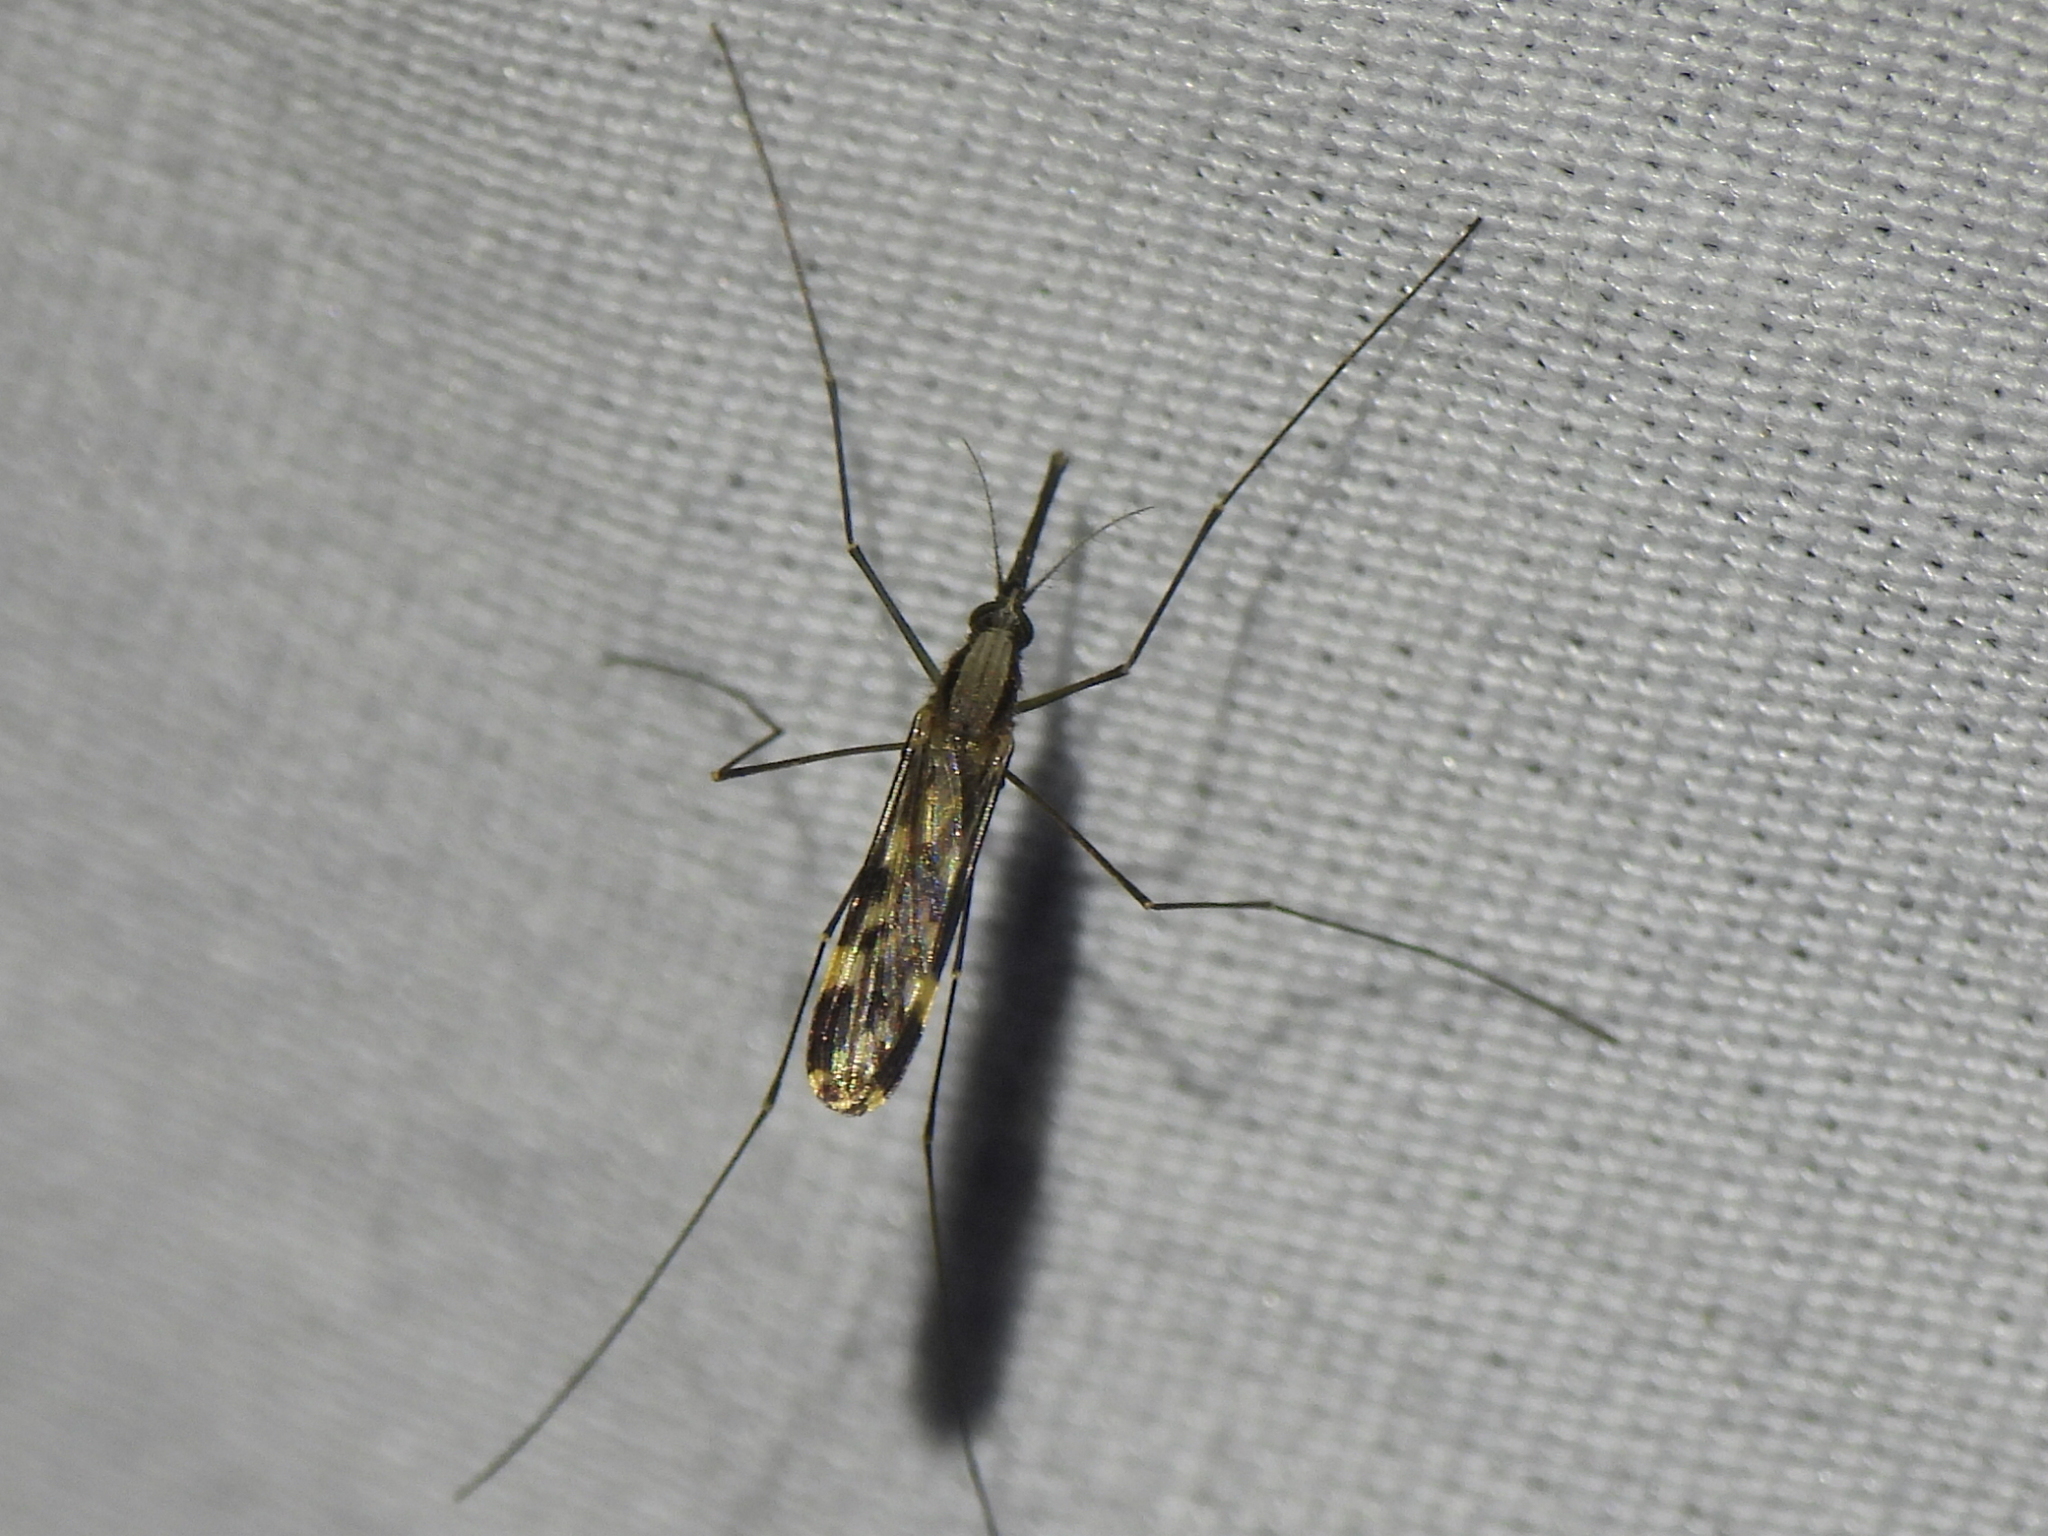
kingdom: Animalia
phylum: Arthropoda
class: Insecta
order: Diptera
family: Culicidae
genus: Anopheles
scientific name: Anopheles punctipennis
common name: Woodland malaria mosquito
